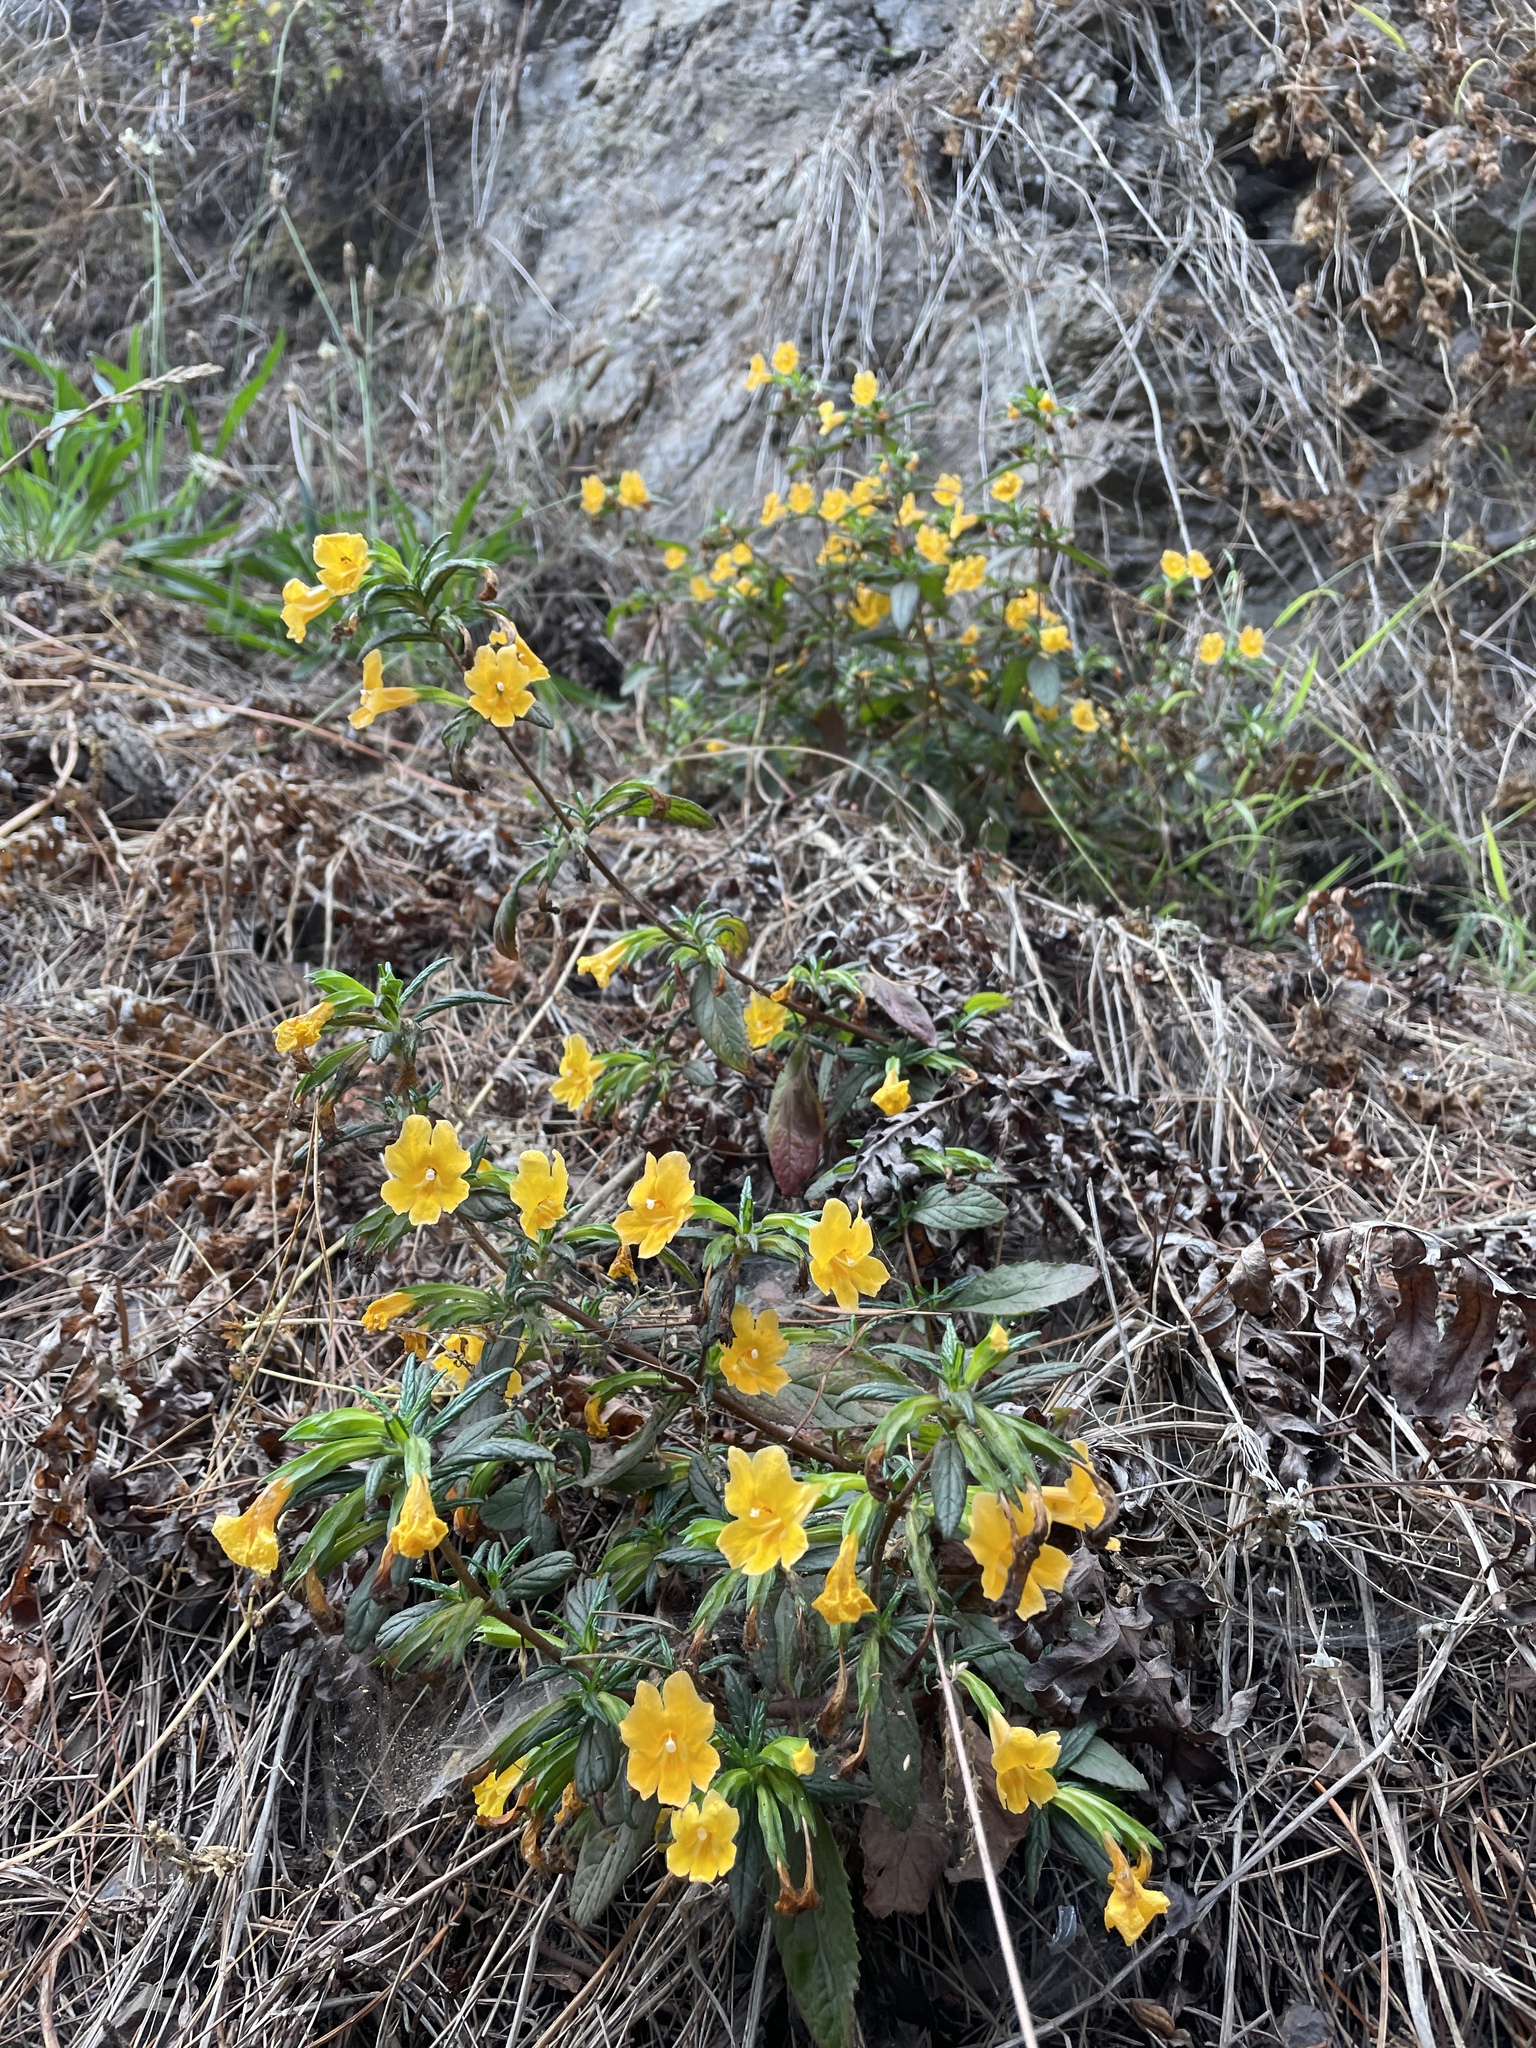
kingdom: Plantae
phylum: Tracheophyta
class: Magnoliopsida
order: Lamiales
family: Phrymaceae
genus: Diplacus
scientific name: Diplacus aurantiacus
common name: Bush monkey-flower
